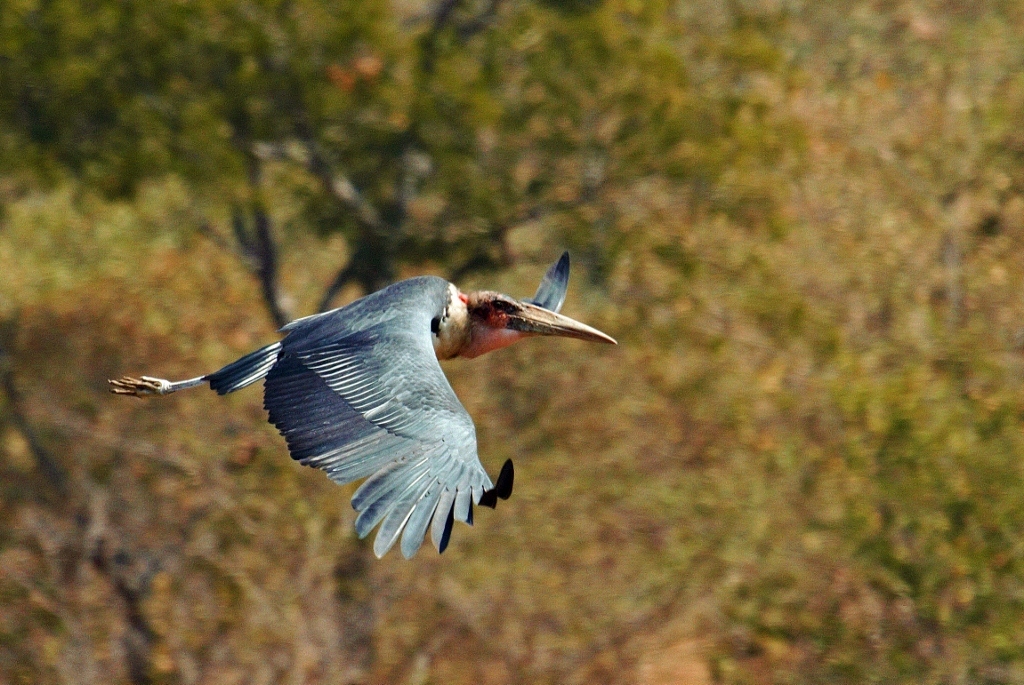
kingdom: Animalia
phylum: Chordata
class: Aves
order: Ciconiiformes
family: Ciconiidae
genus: Leptoptilos
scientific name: Leptoptilos crumenifer
